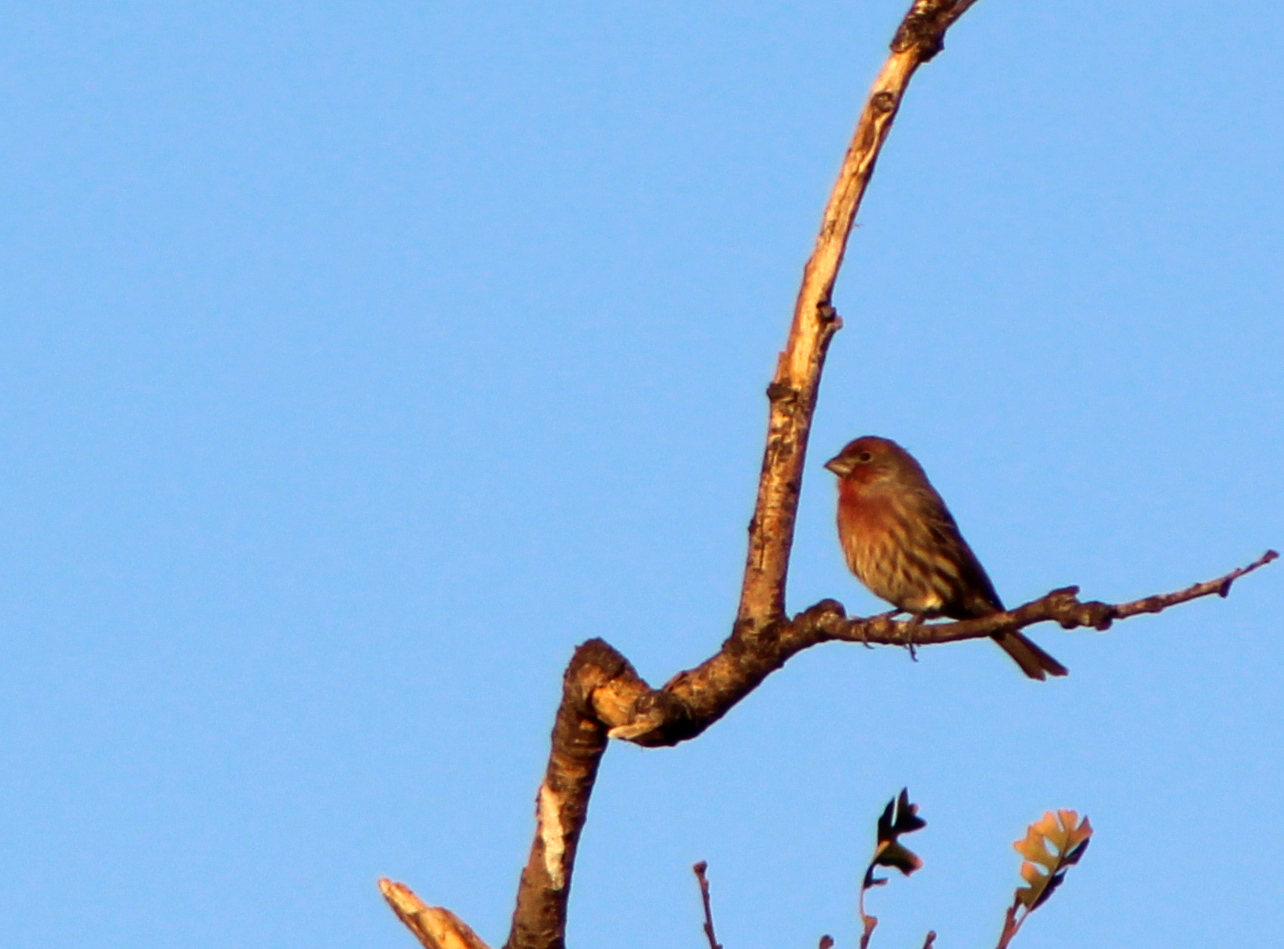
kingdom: Animalia
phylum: Chordata
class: Aves
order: Passeriformes
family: Fringillidae
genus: Haemorhous
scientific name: Haemorhous mexicanus
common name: House finch
